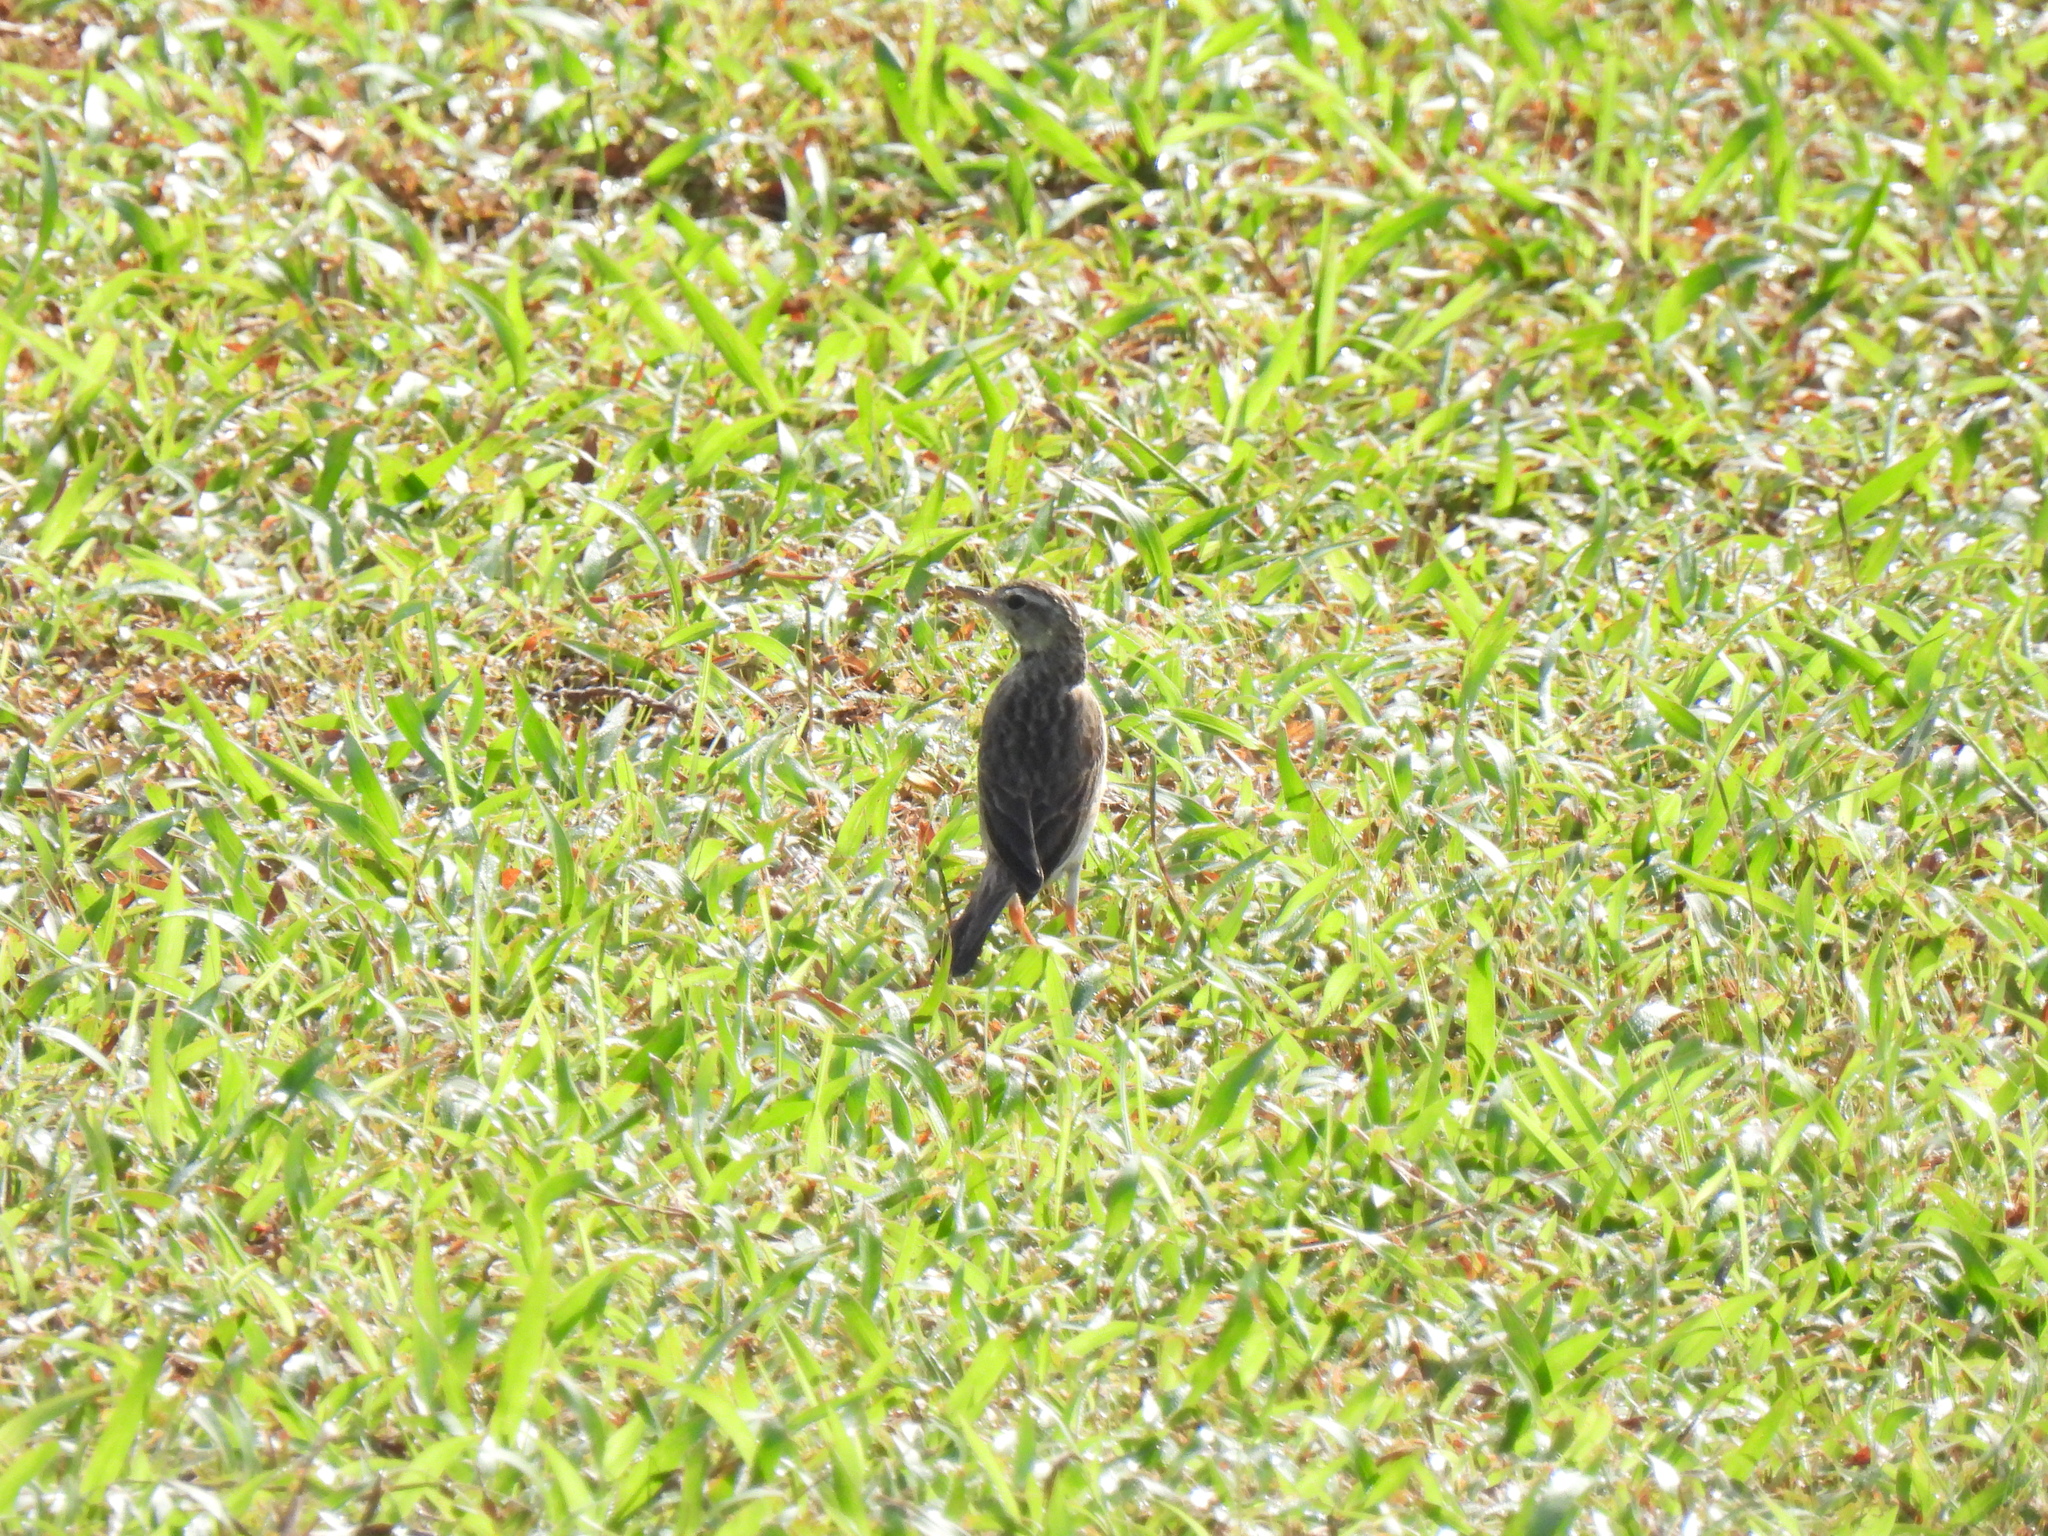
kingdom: Animalia
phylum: Chordata
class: Aves
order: Passeriformes
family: Motacillidae
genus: Anthus
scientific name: Anthus rufulus
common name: Paddyfield pipit
